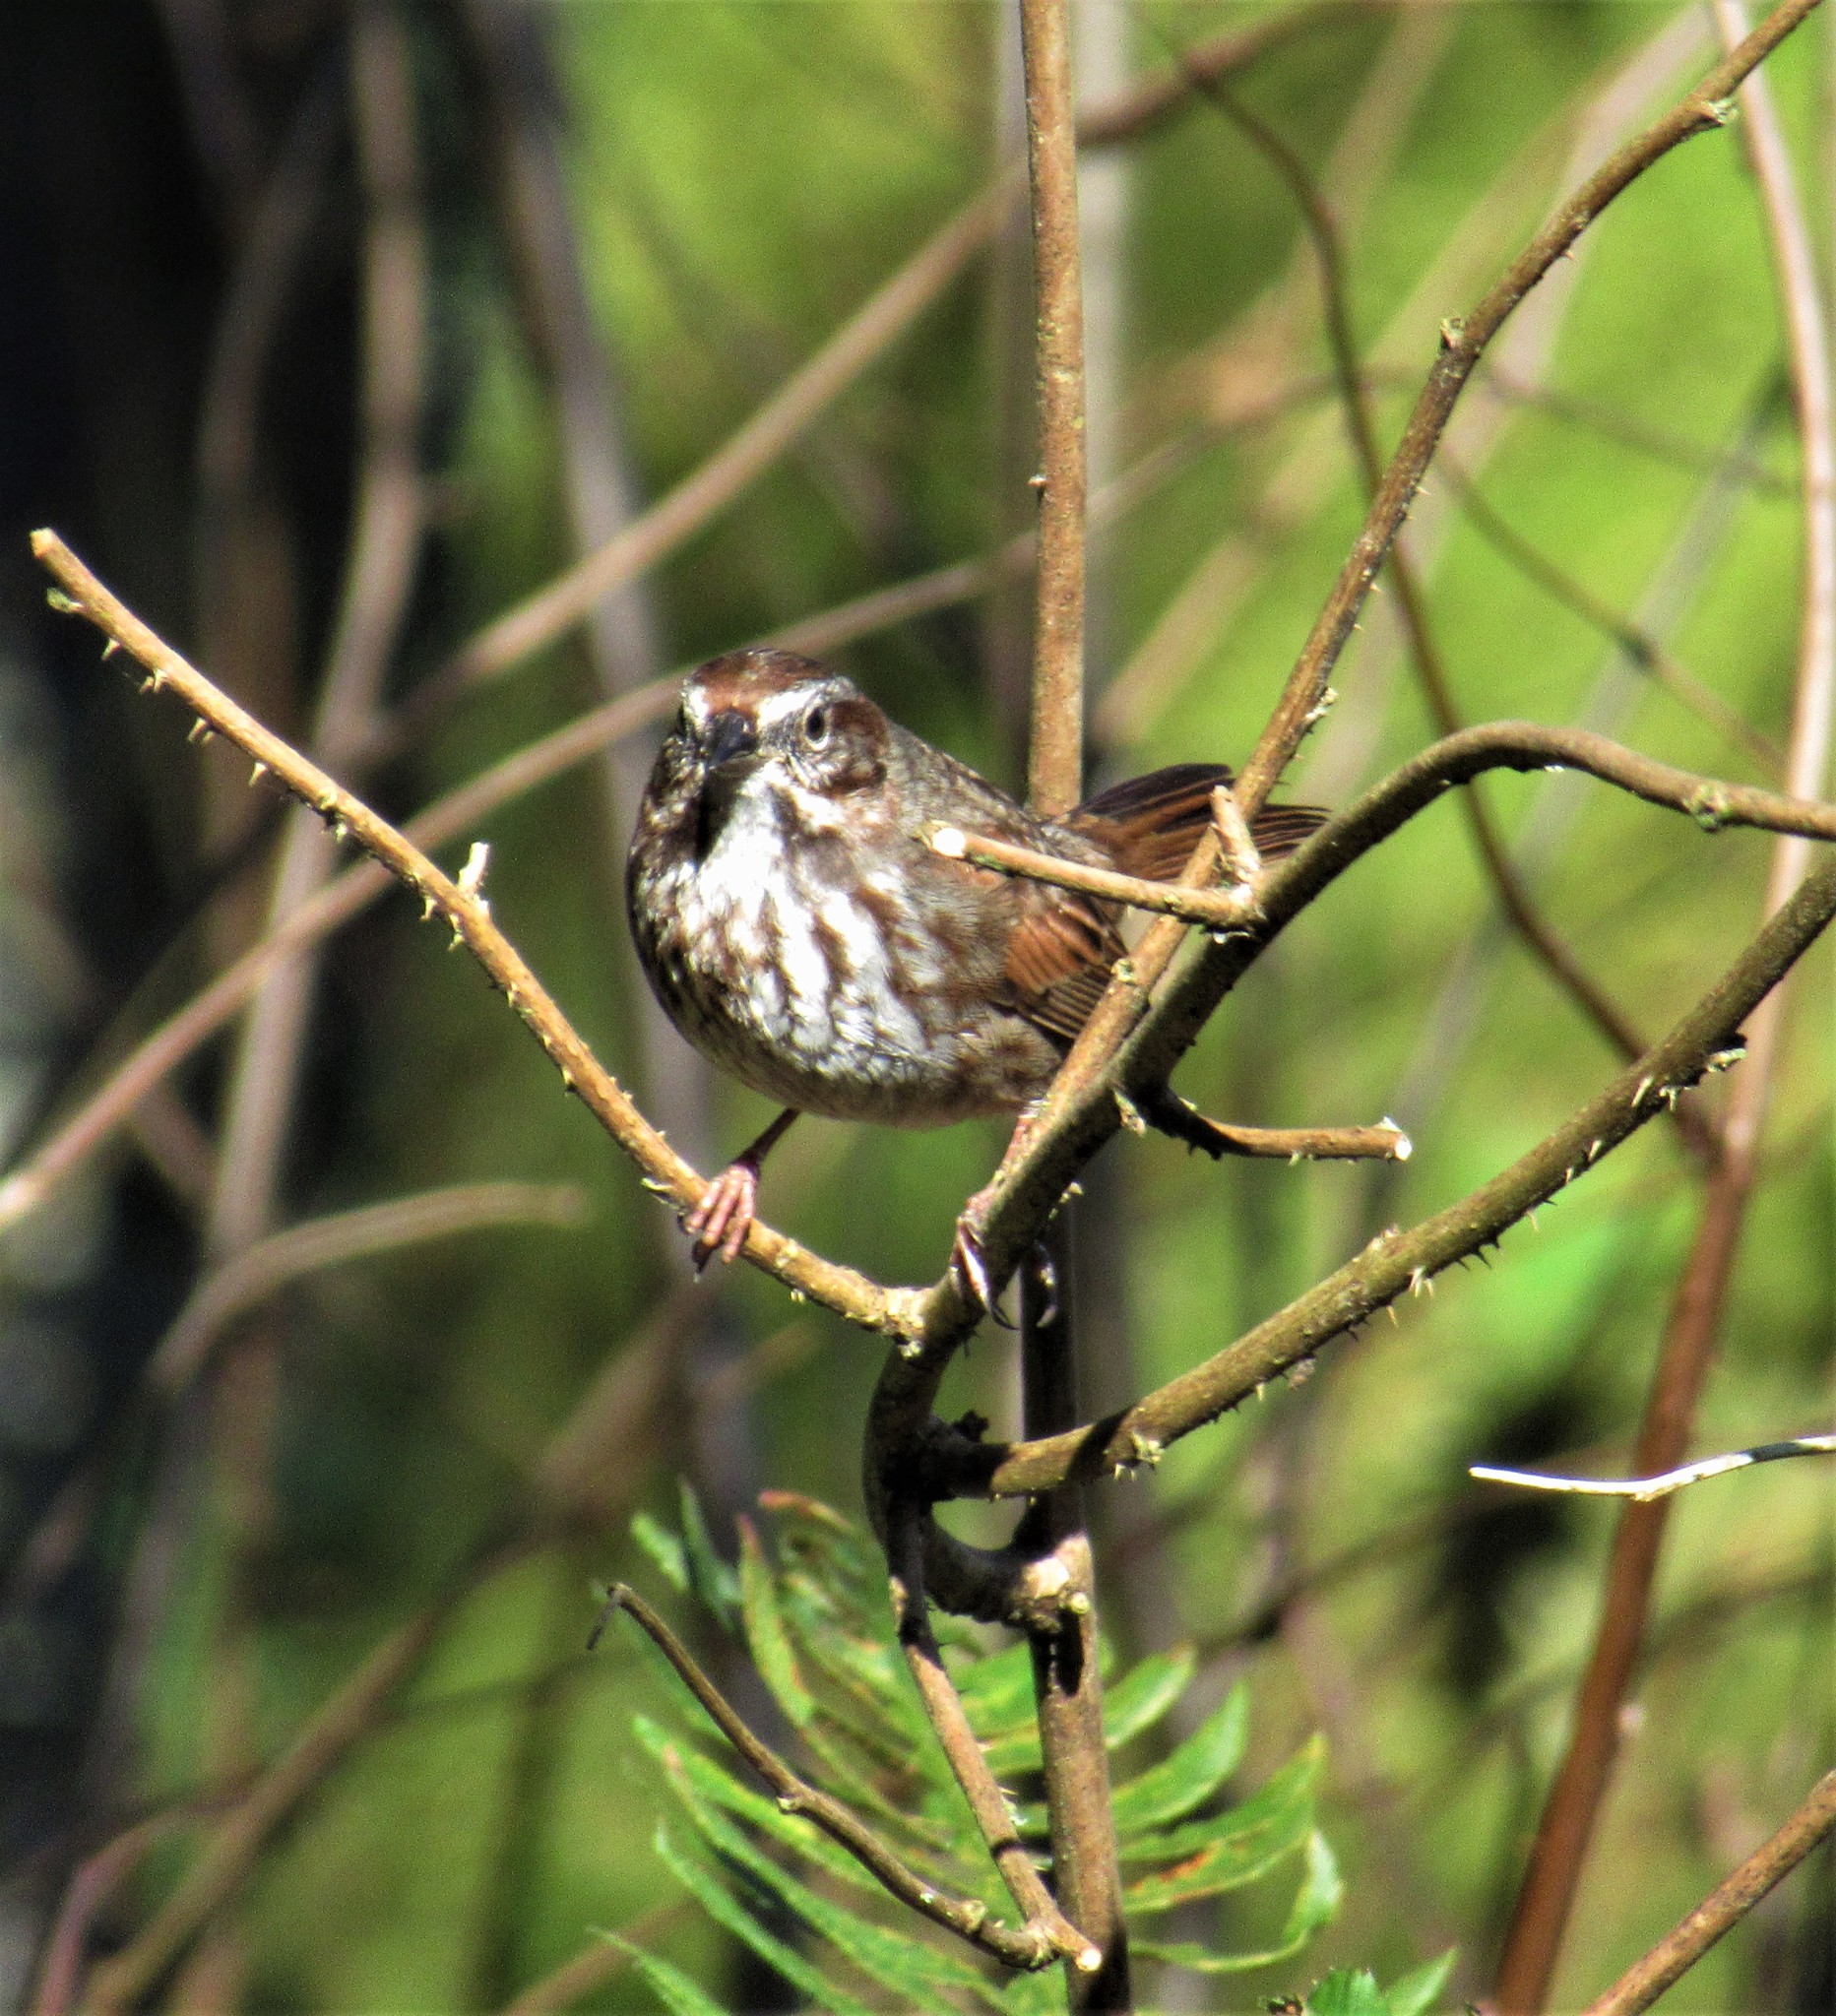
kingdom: Animalia
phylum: Chordata
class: Aves
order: Passeriformes
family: Passerellidae
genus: Melospiza
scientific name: Melospiza melodia
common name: Song sparrow
